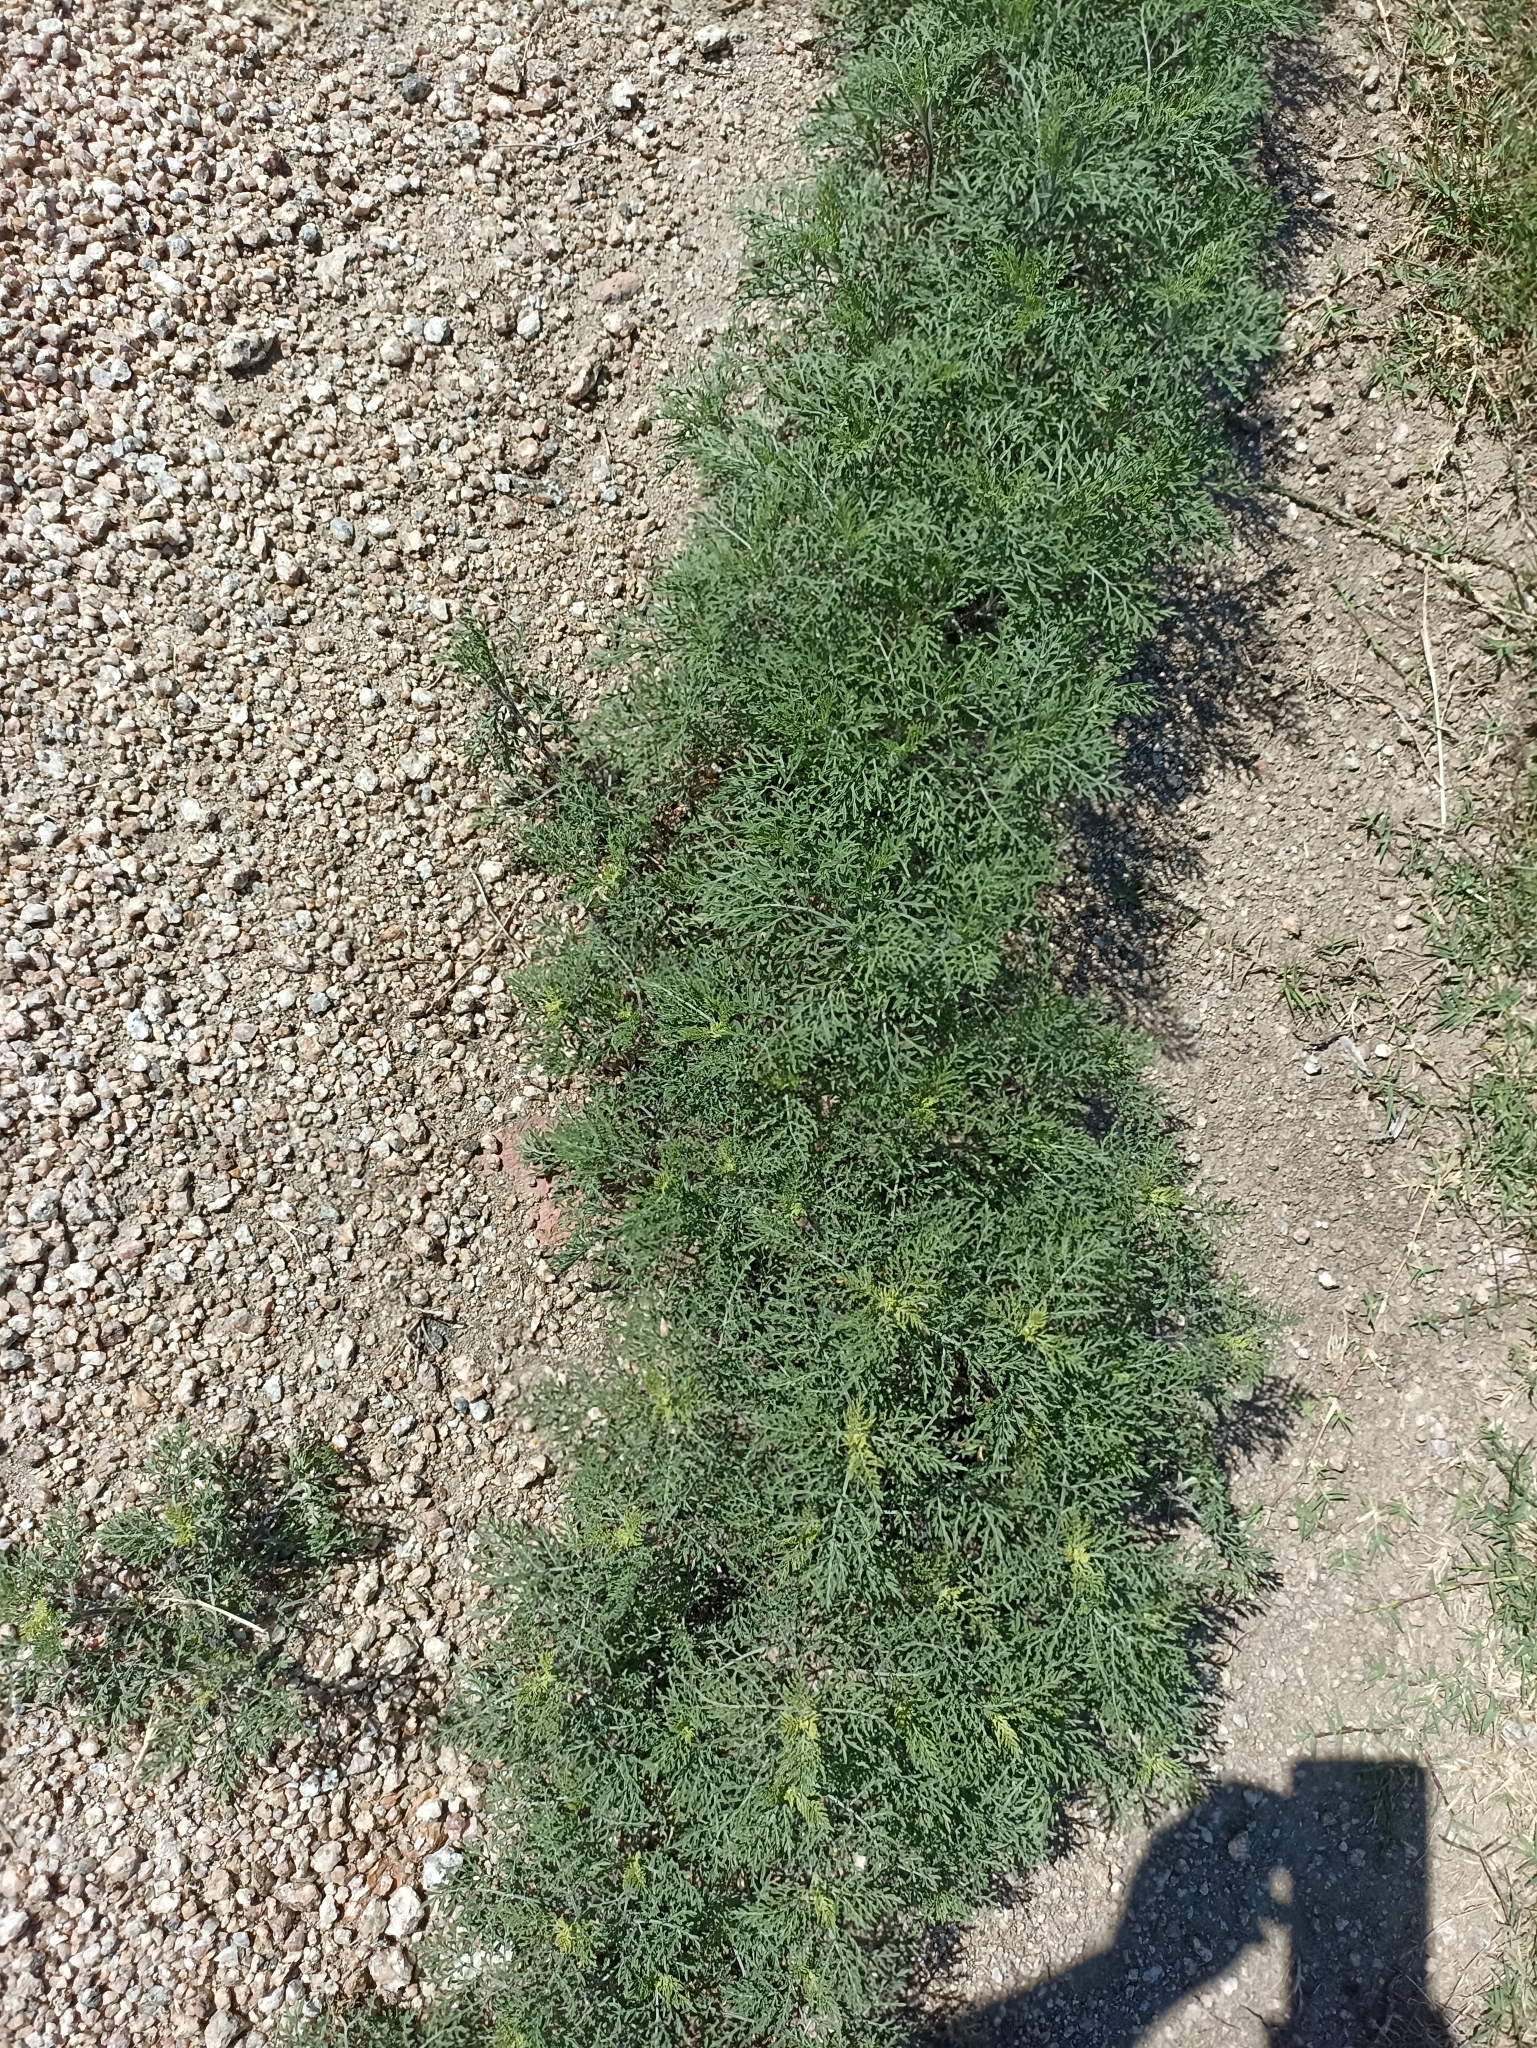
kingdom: Plantae
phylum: Tracheophyta
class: Magnoliopsida
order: Asterales
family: Asteraceae
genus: Ambrosia
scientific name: Ambrosia tenuifolia
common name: Lacy ambrosia
